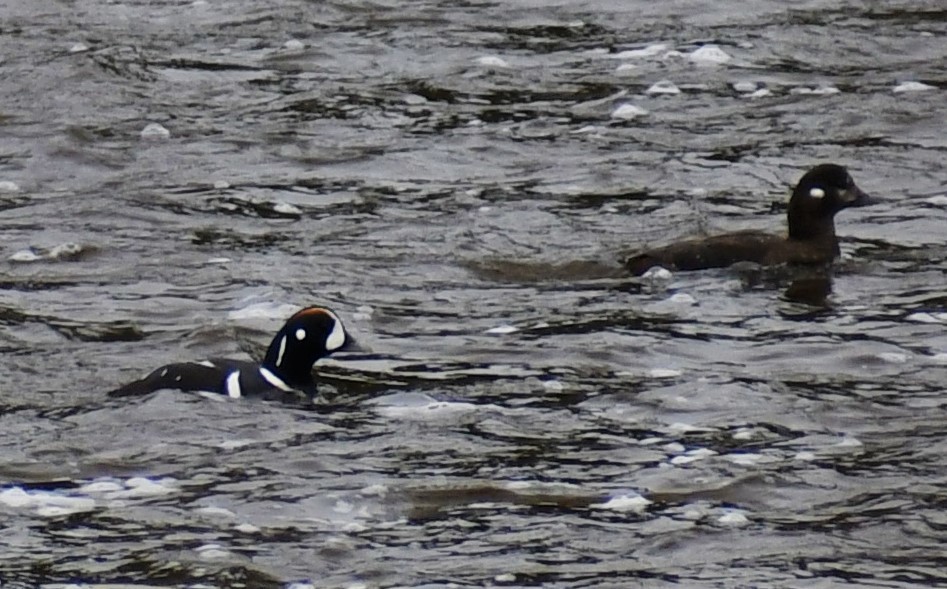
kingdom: Animalia
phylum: Chordata
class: Aves
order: Anseriformes
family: Anatidae
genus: Histrionicus
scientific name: Histrionicus histrionicus
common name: Harlequin duck
